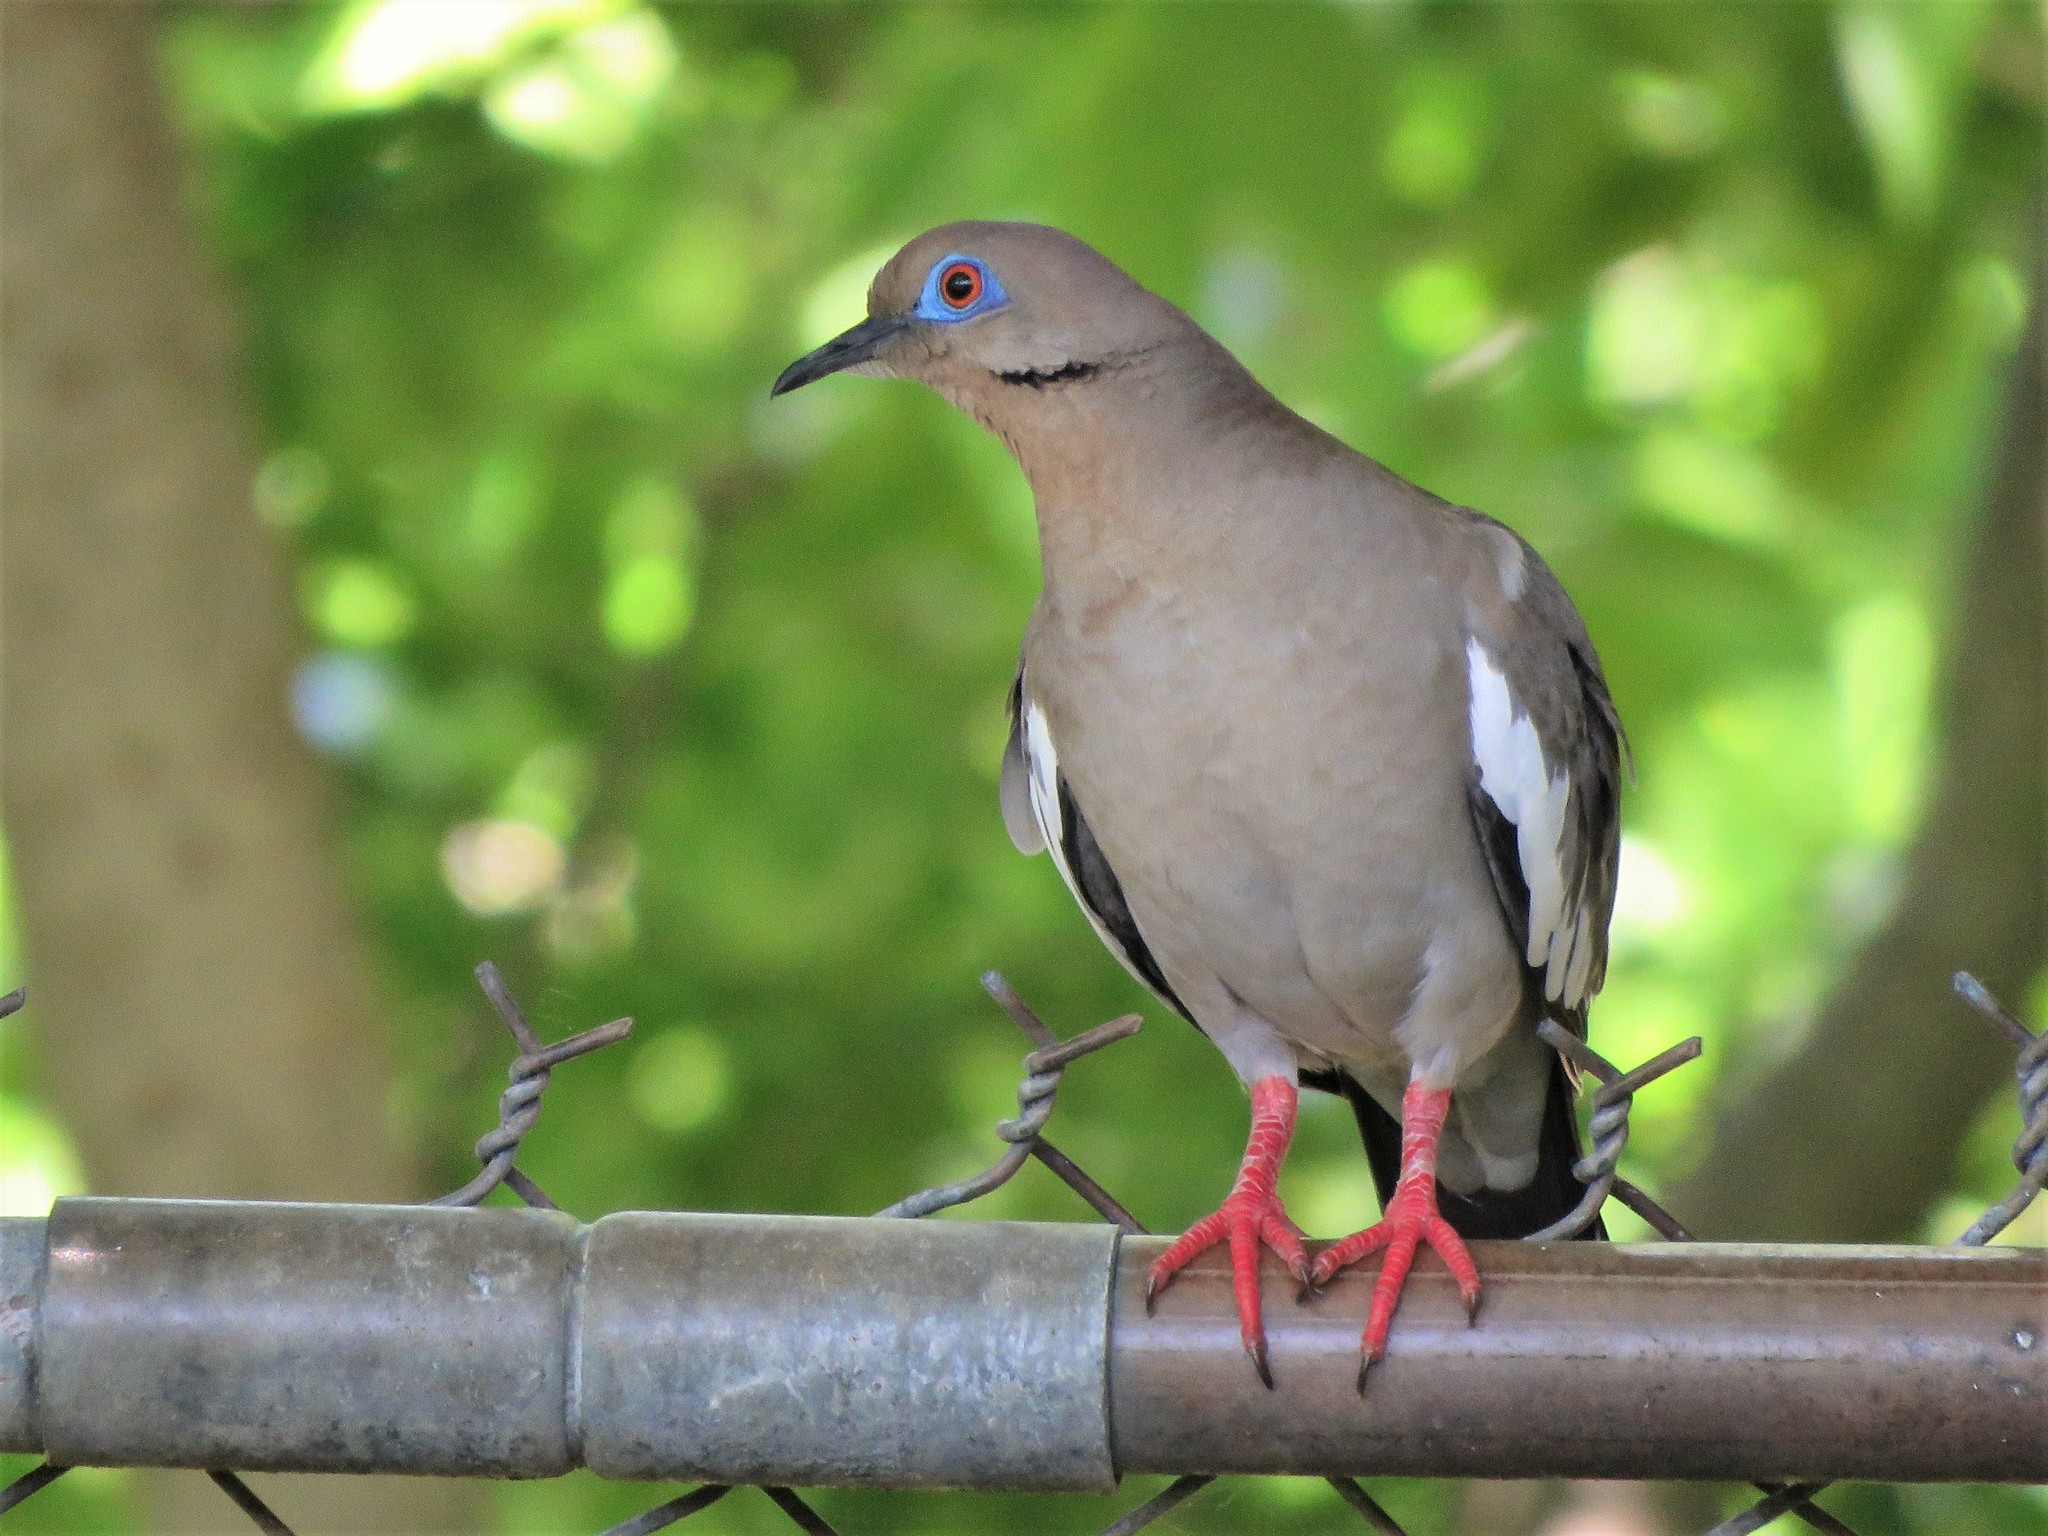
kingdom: Animalia
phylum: Chordata
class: Aves
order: Columbiformes
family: Columbidae
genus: Zenaida
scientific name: Zenaida asiatica
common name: White-winged dove
